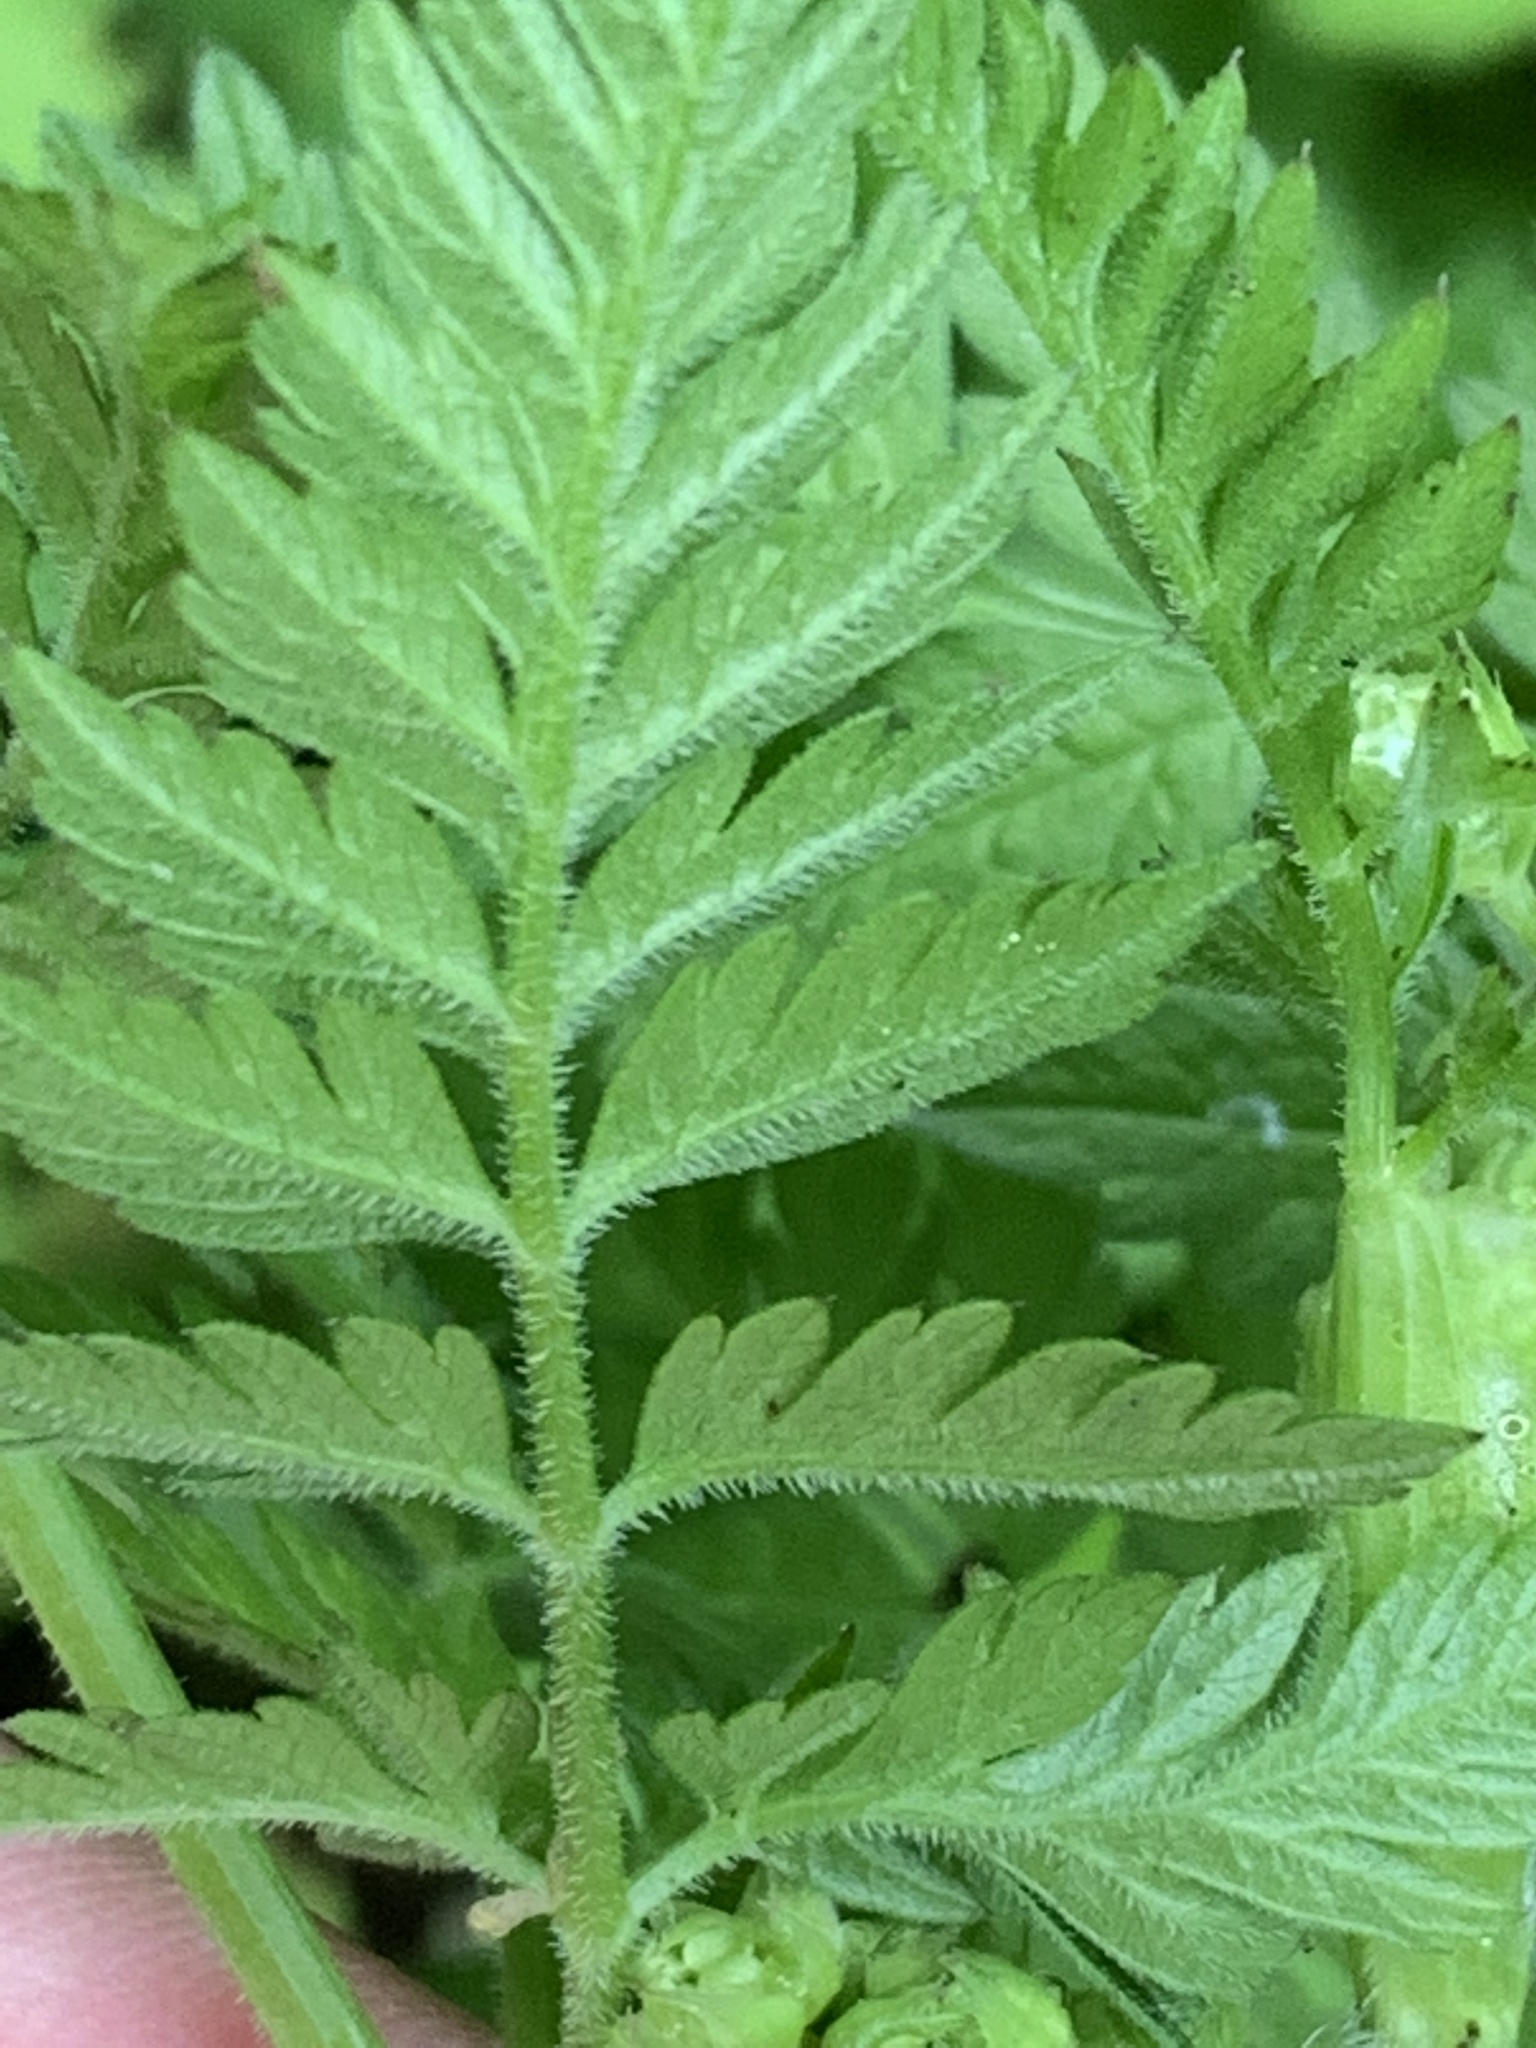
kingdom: Plantae
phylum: Tracheophyta
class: Magnoliopsida
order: Apiales
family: Apiaceae
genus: Anthriscus
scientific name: Anthriscus sylvestris
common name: Cow parsley
